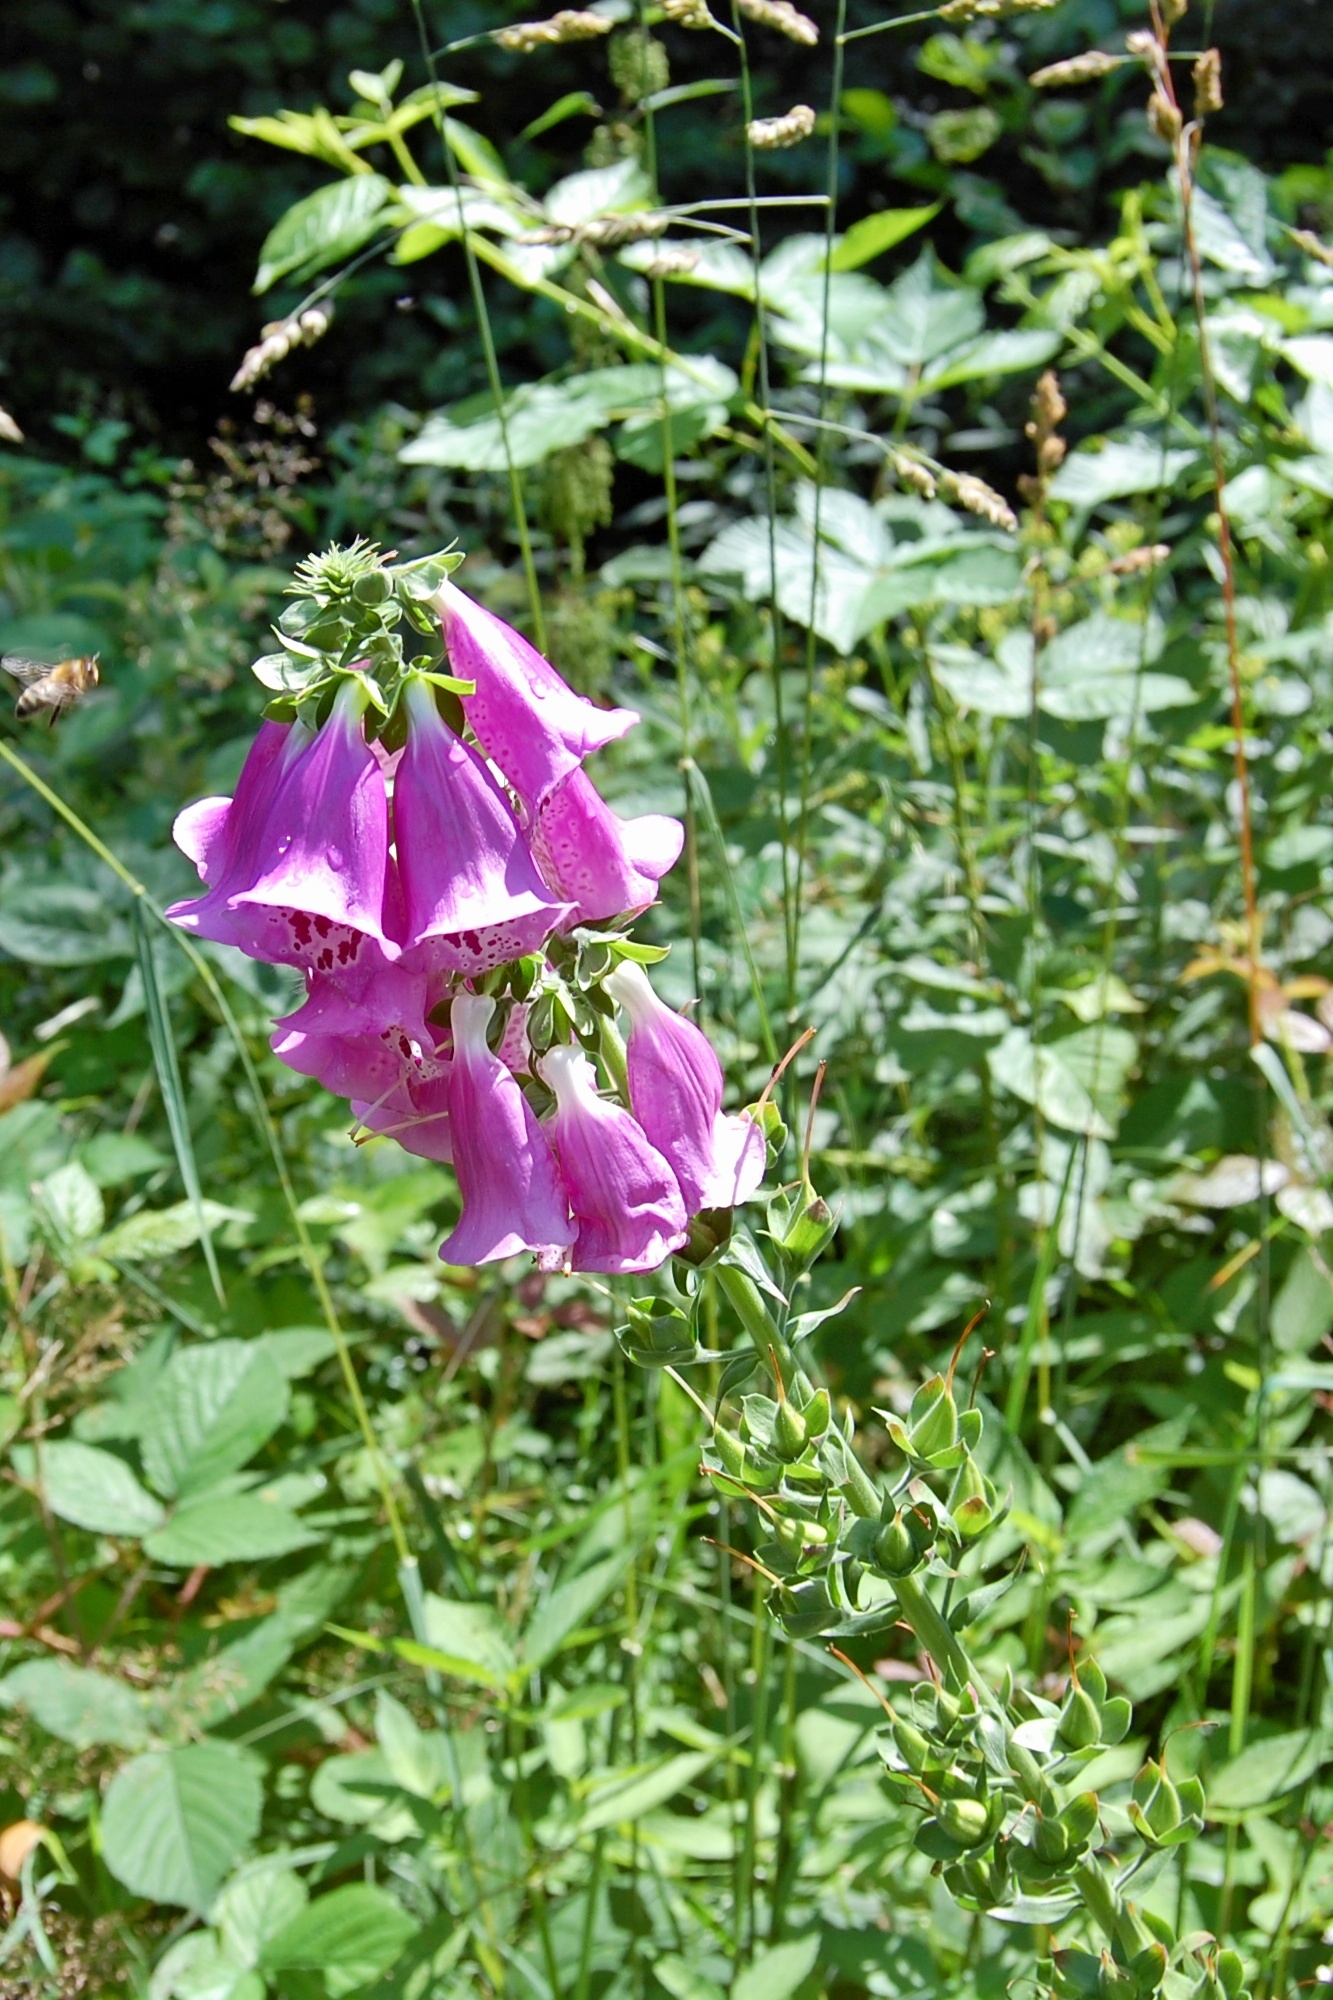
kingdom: Plantae
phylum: Tracheophyta
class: Magnoliopsida
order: Lamiales
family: Plantaginaceae
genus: Digitalis
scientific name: Digitalis purpurea
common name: Foxglove
